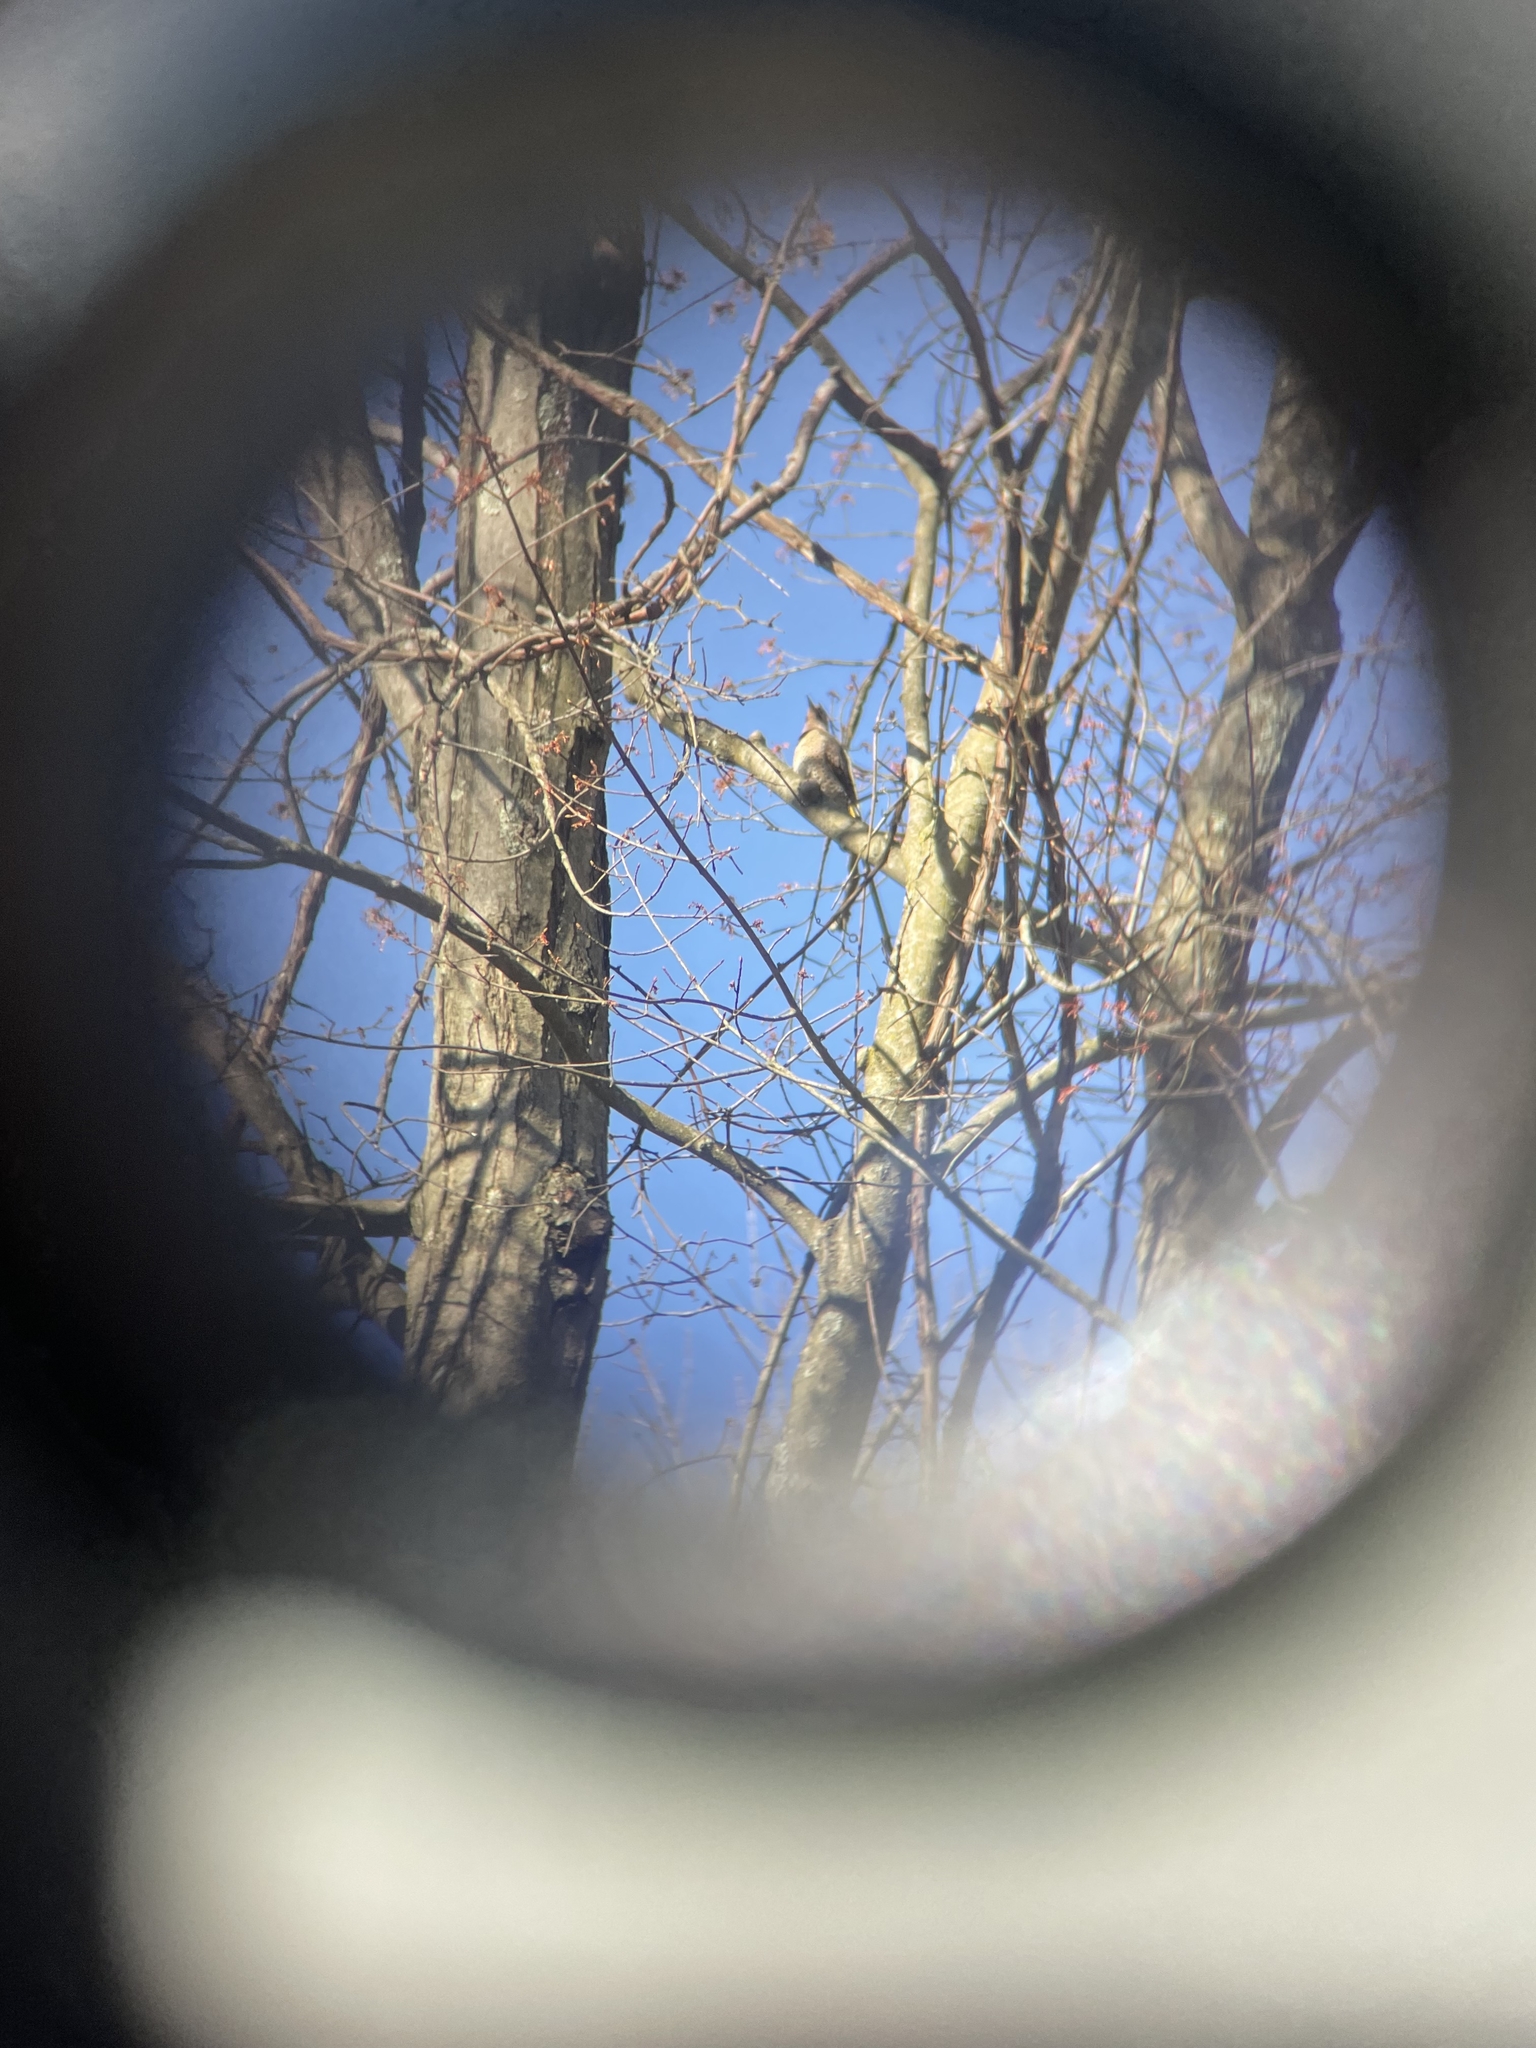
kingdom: Animalia
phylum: Chordata
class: Aves
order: Piciformes
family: Picidae
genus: Colaptes
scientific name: Colaptes auratus
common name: Northern flicker
